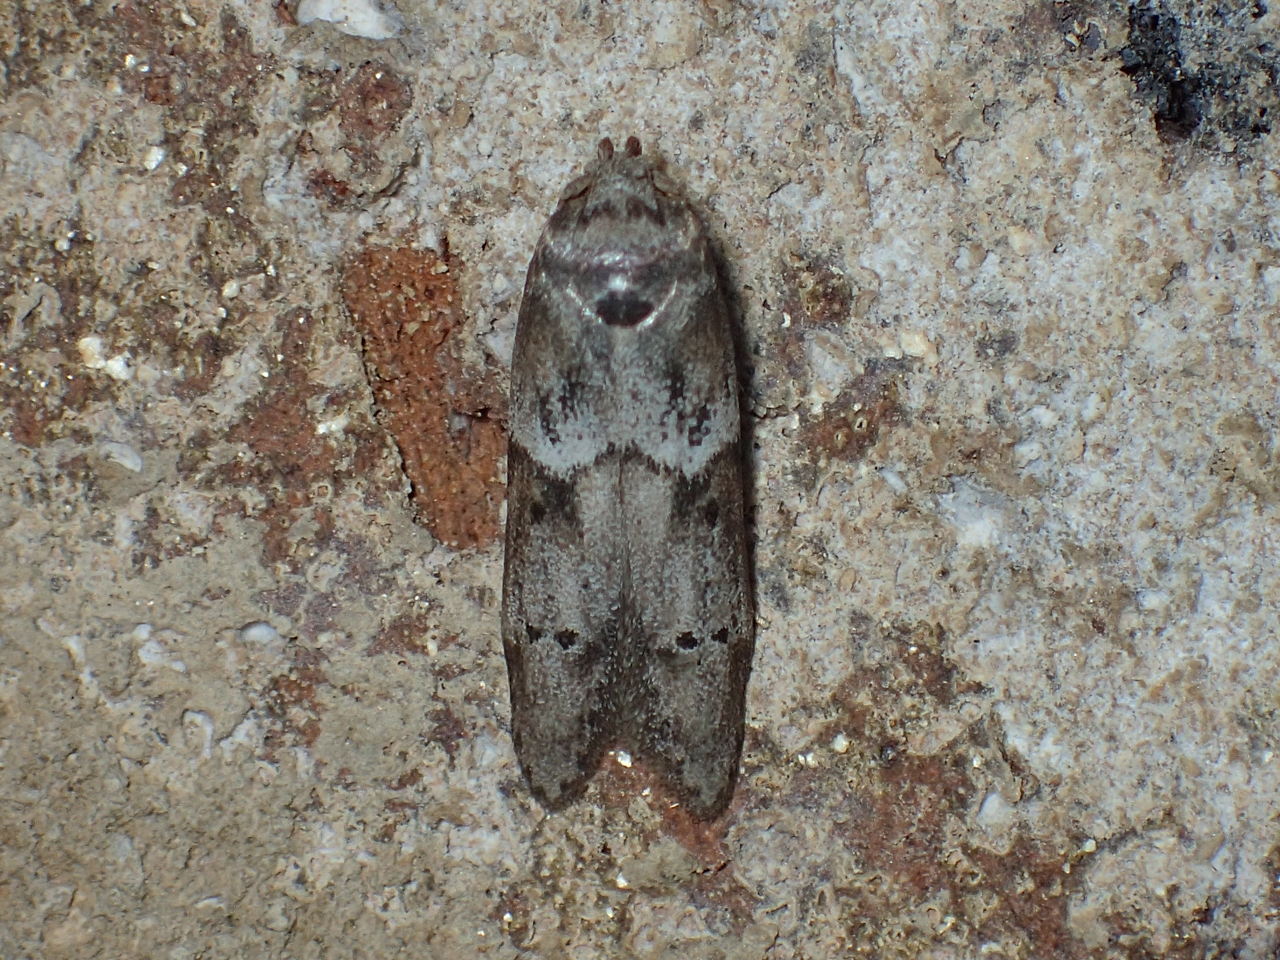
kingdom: Animalia
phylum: Arthropoda
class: Insecta
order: Lepidoptera
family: Blastobasidae
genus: Blastobasis
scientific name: Blastobasis glandulella
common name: Acorn moth
